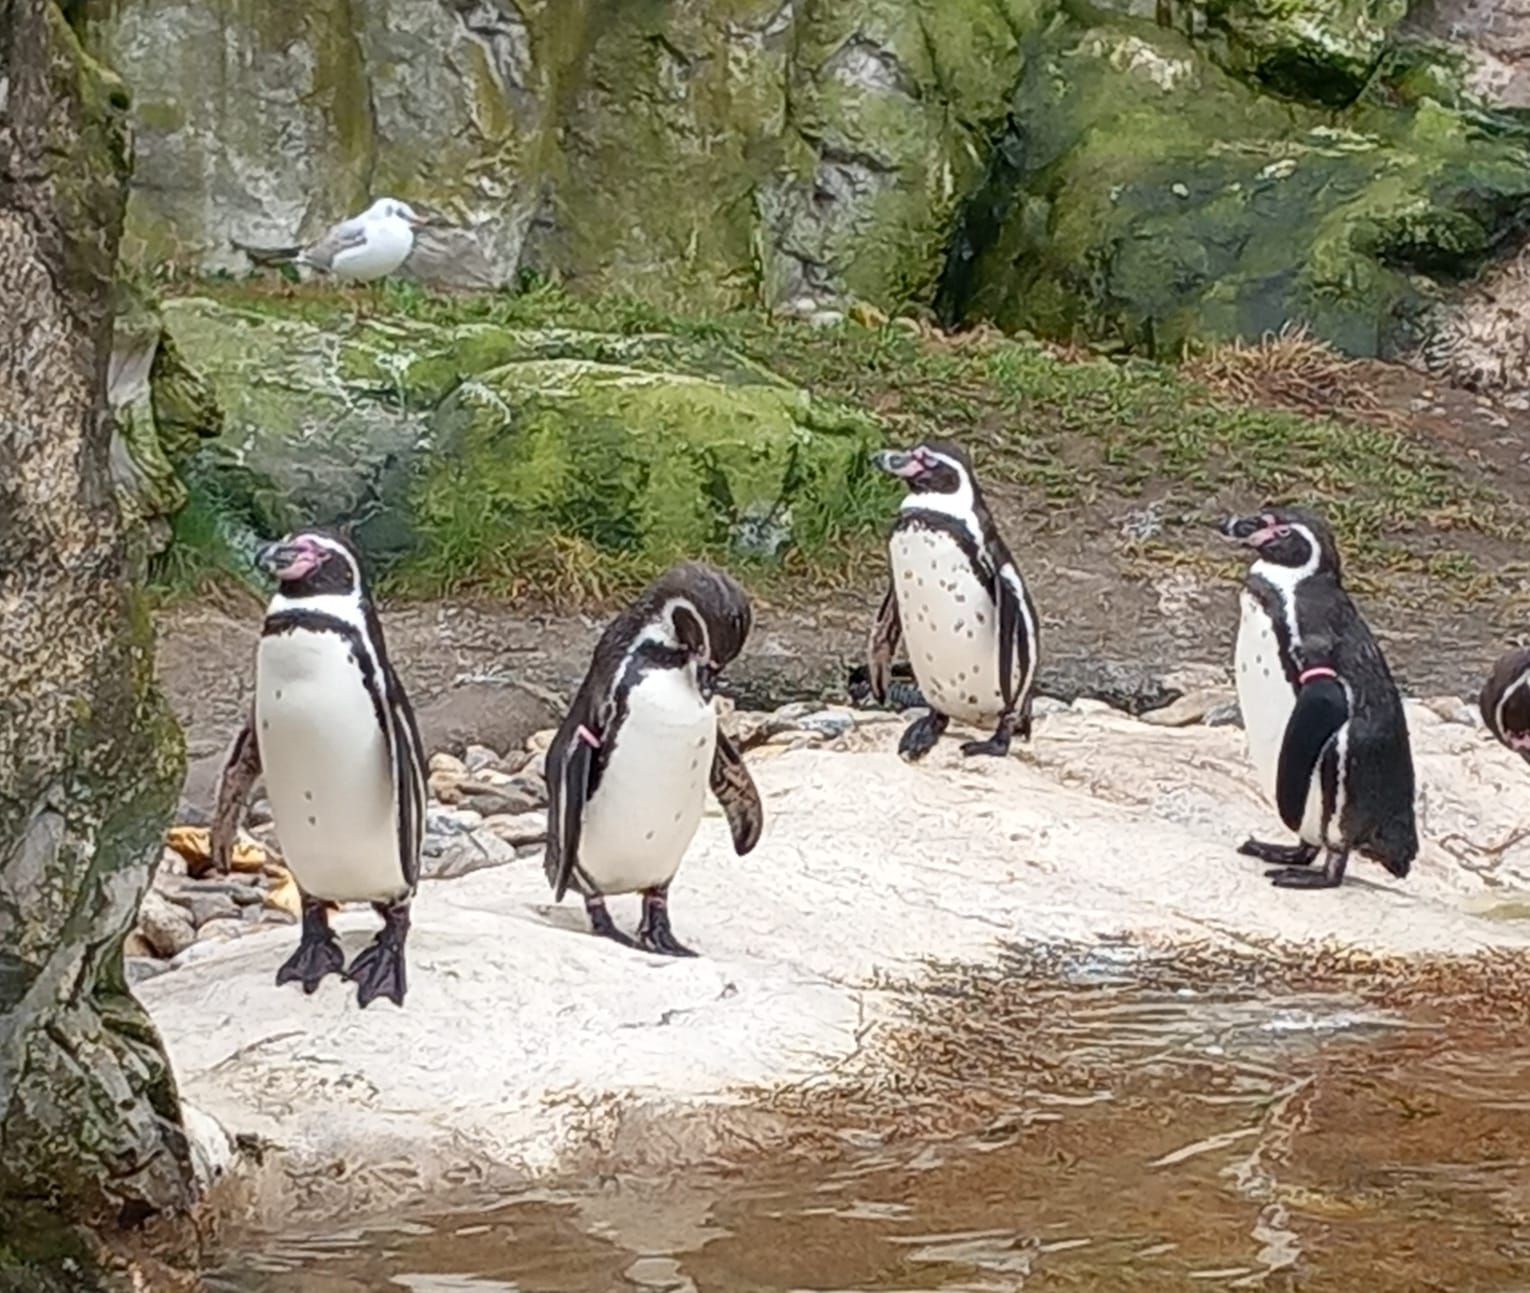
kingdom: Animalia
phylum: Chordata
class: Aves
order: Charadriiformes
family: Laridae
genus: Chroicocephalus
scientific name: Chroicocephalus ridibundus
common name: Black-headed gull
